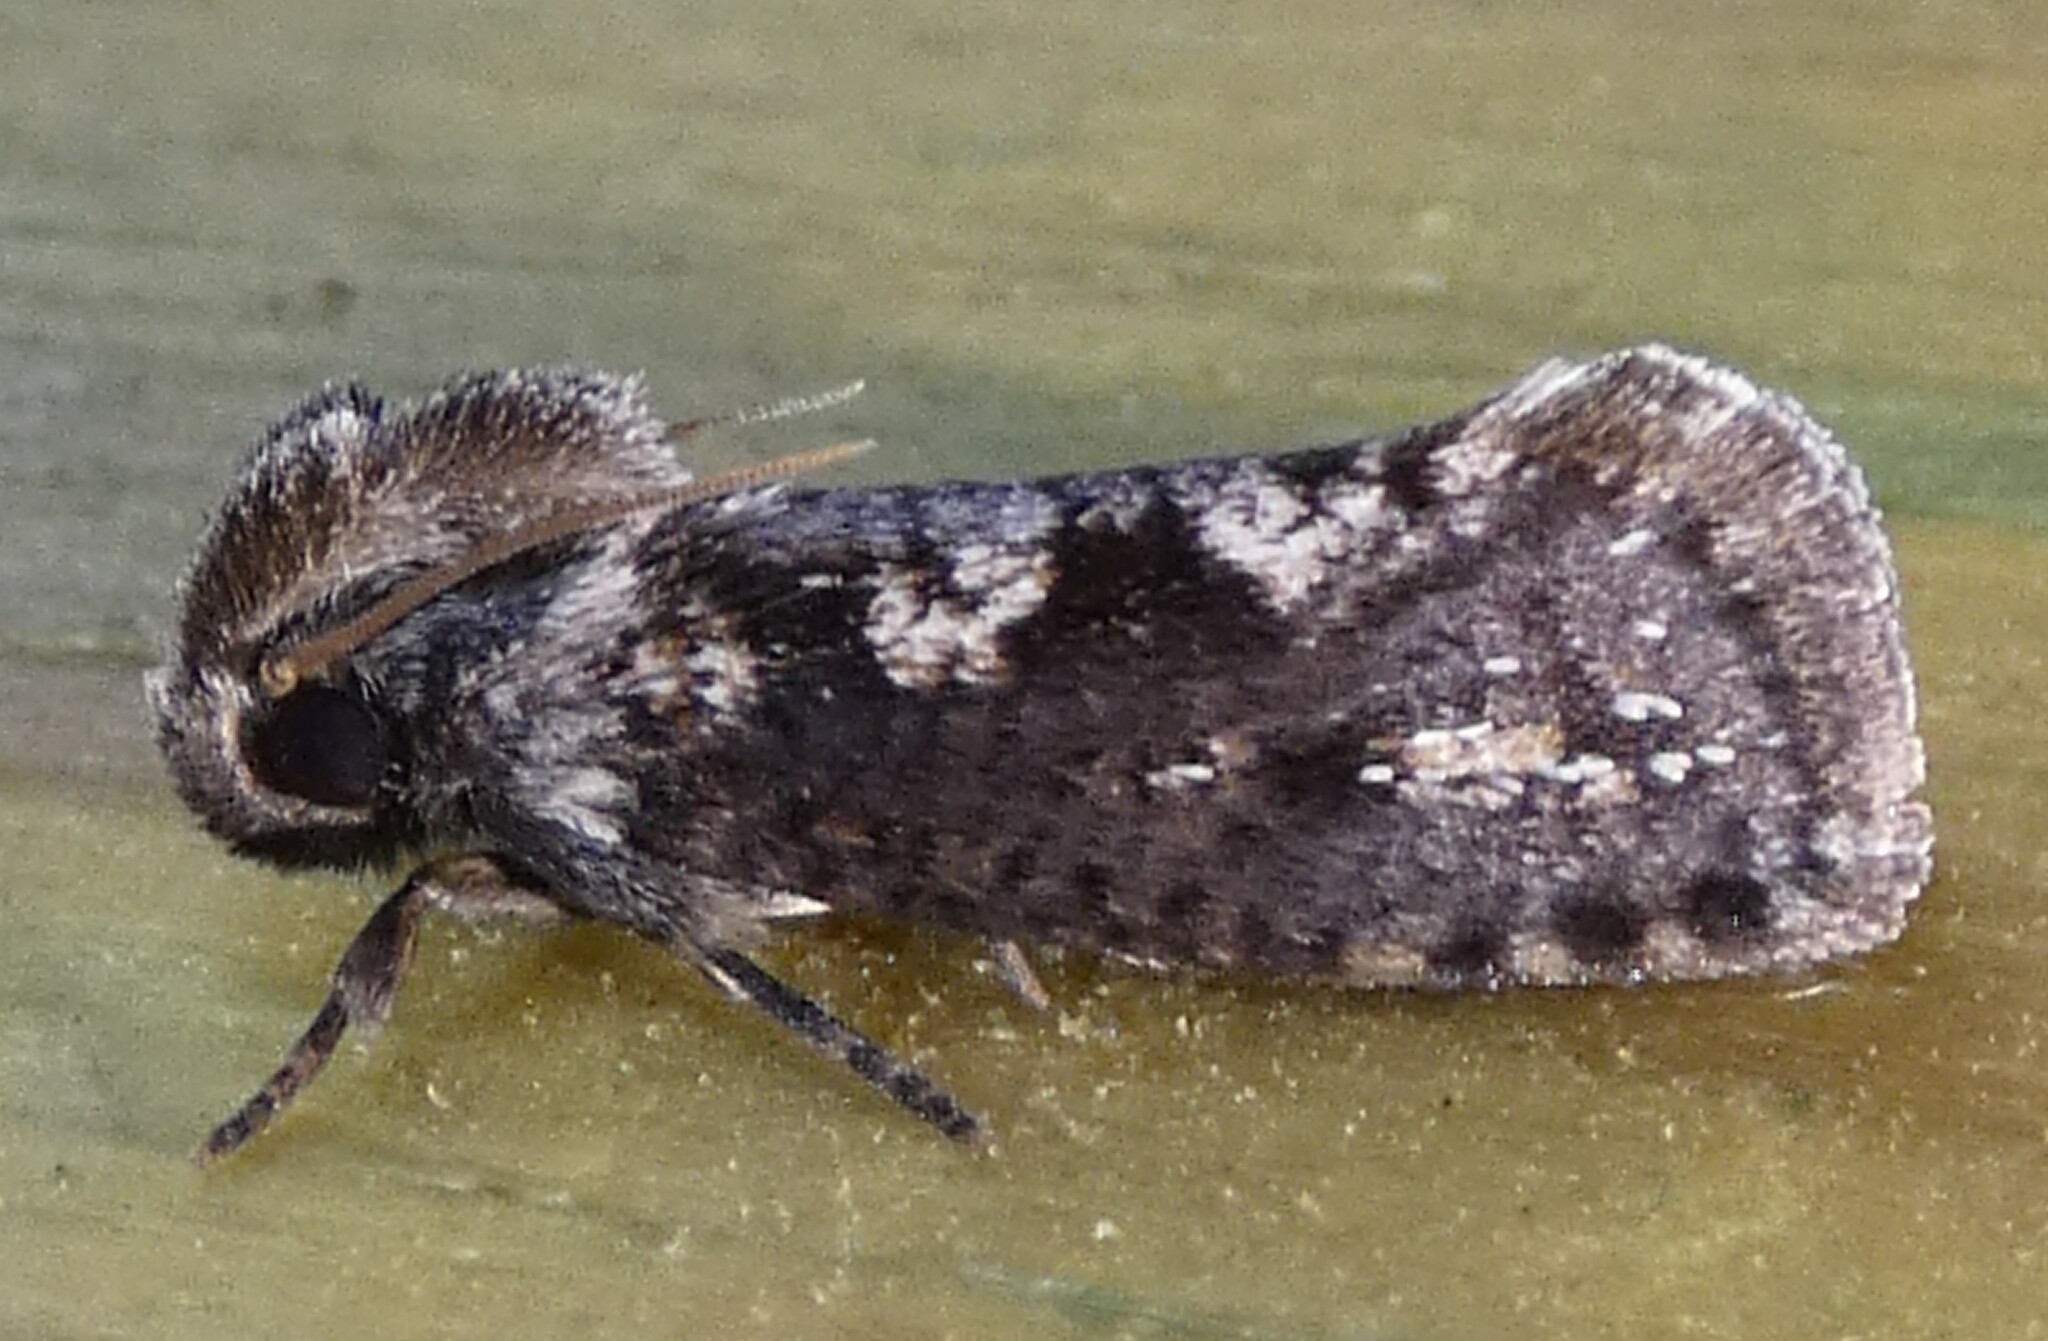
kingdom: Animalia
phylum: Arthropoda
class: Insecta
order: Lepidoptera
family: Tineidae
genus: Acrolophus
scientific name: Acrolophus propinqua
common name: Walsingham's grass tubeworm moth
